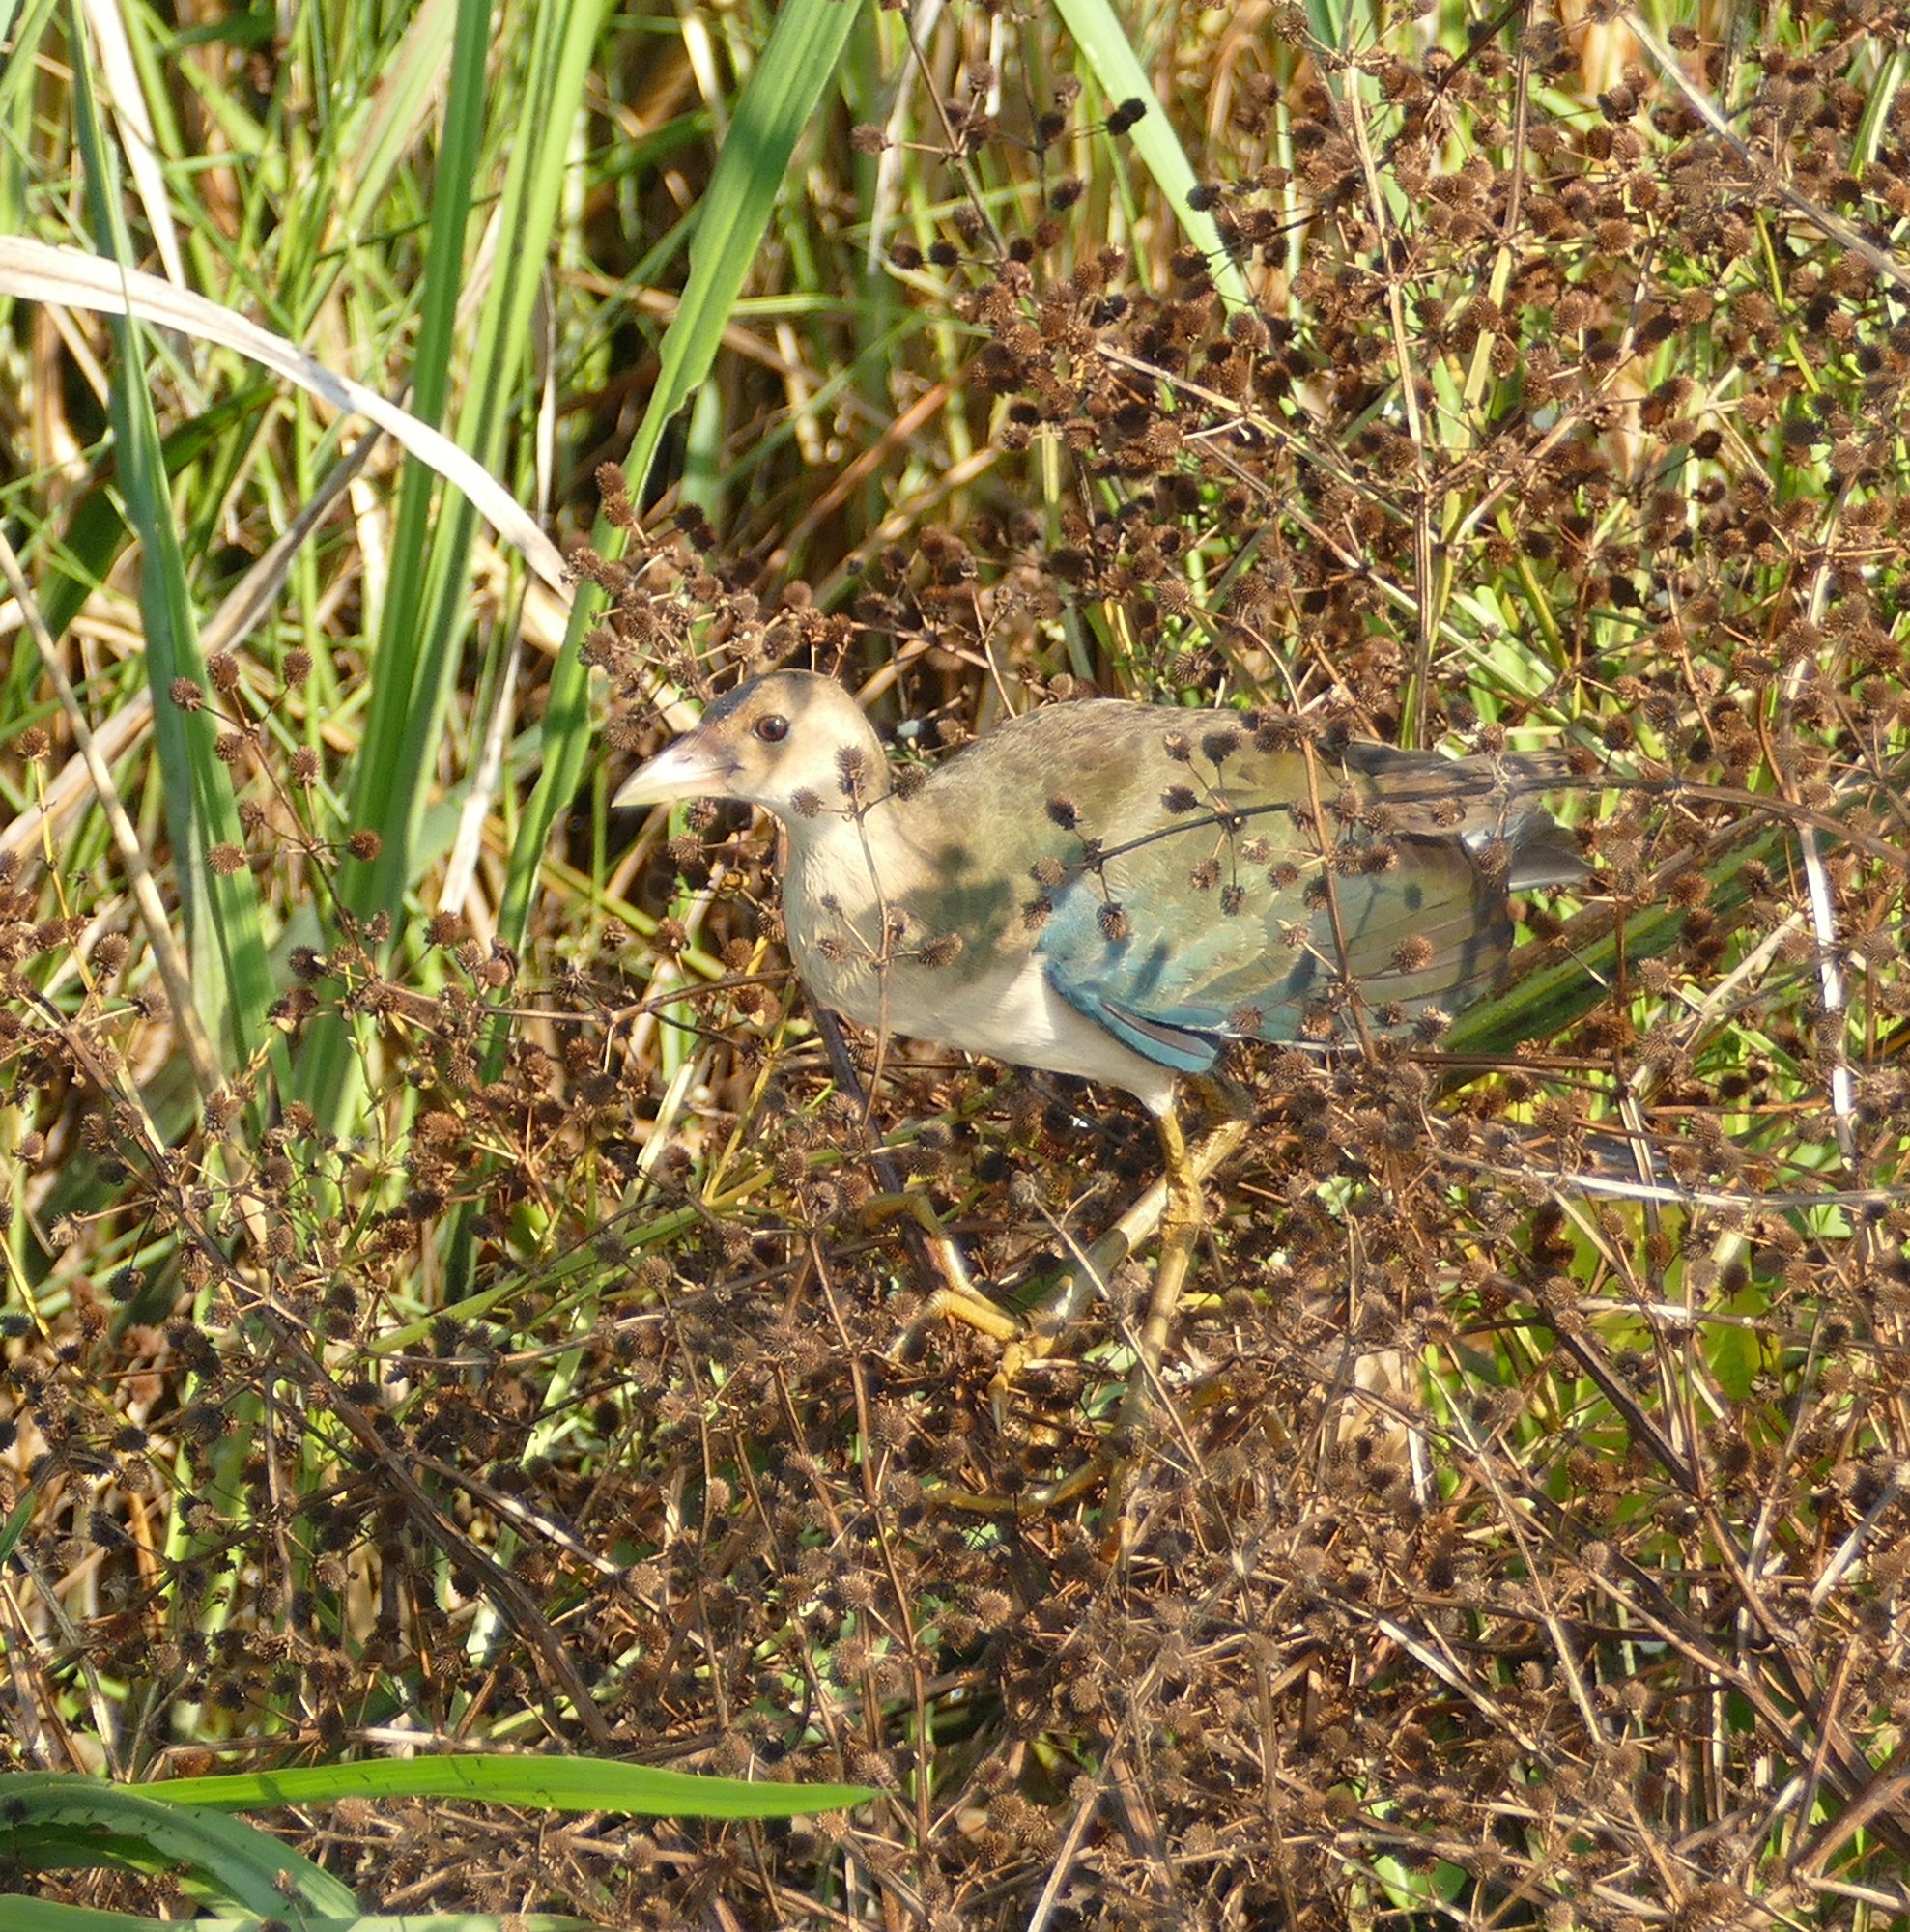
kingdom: Animalia
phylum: Chordata
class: Aves
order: Gruiformes
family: Rallidae
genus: Porphyrio
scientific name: Porphyrio martinica
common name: Purple gallinule
